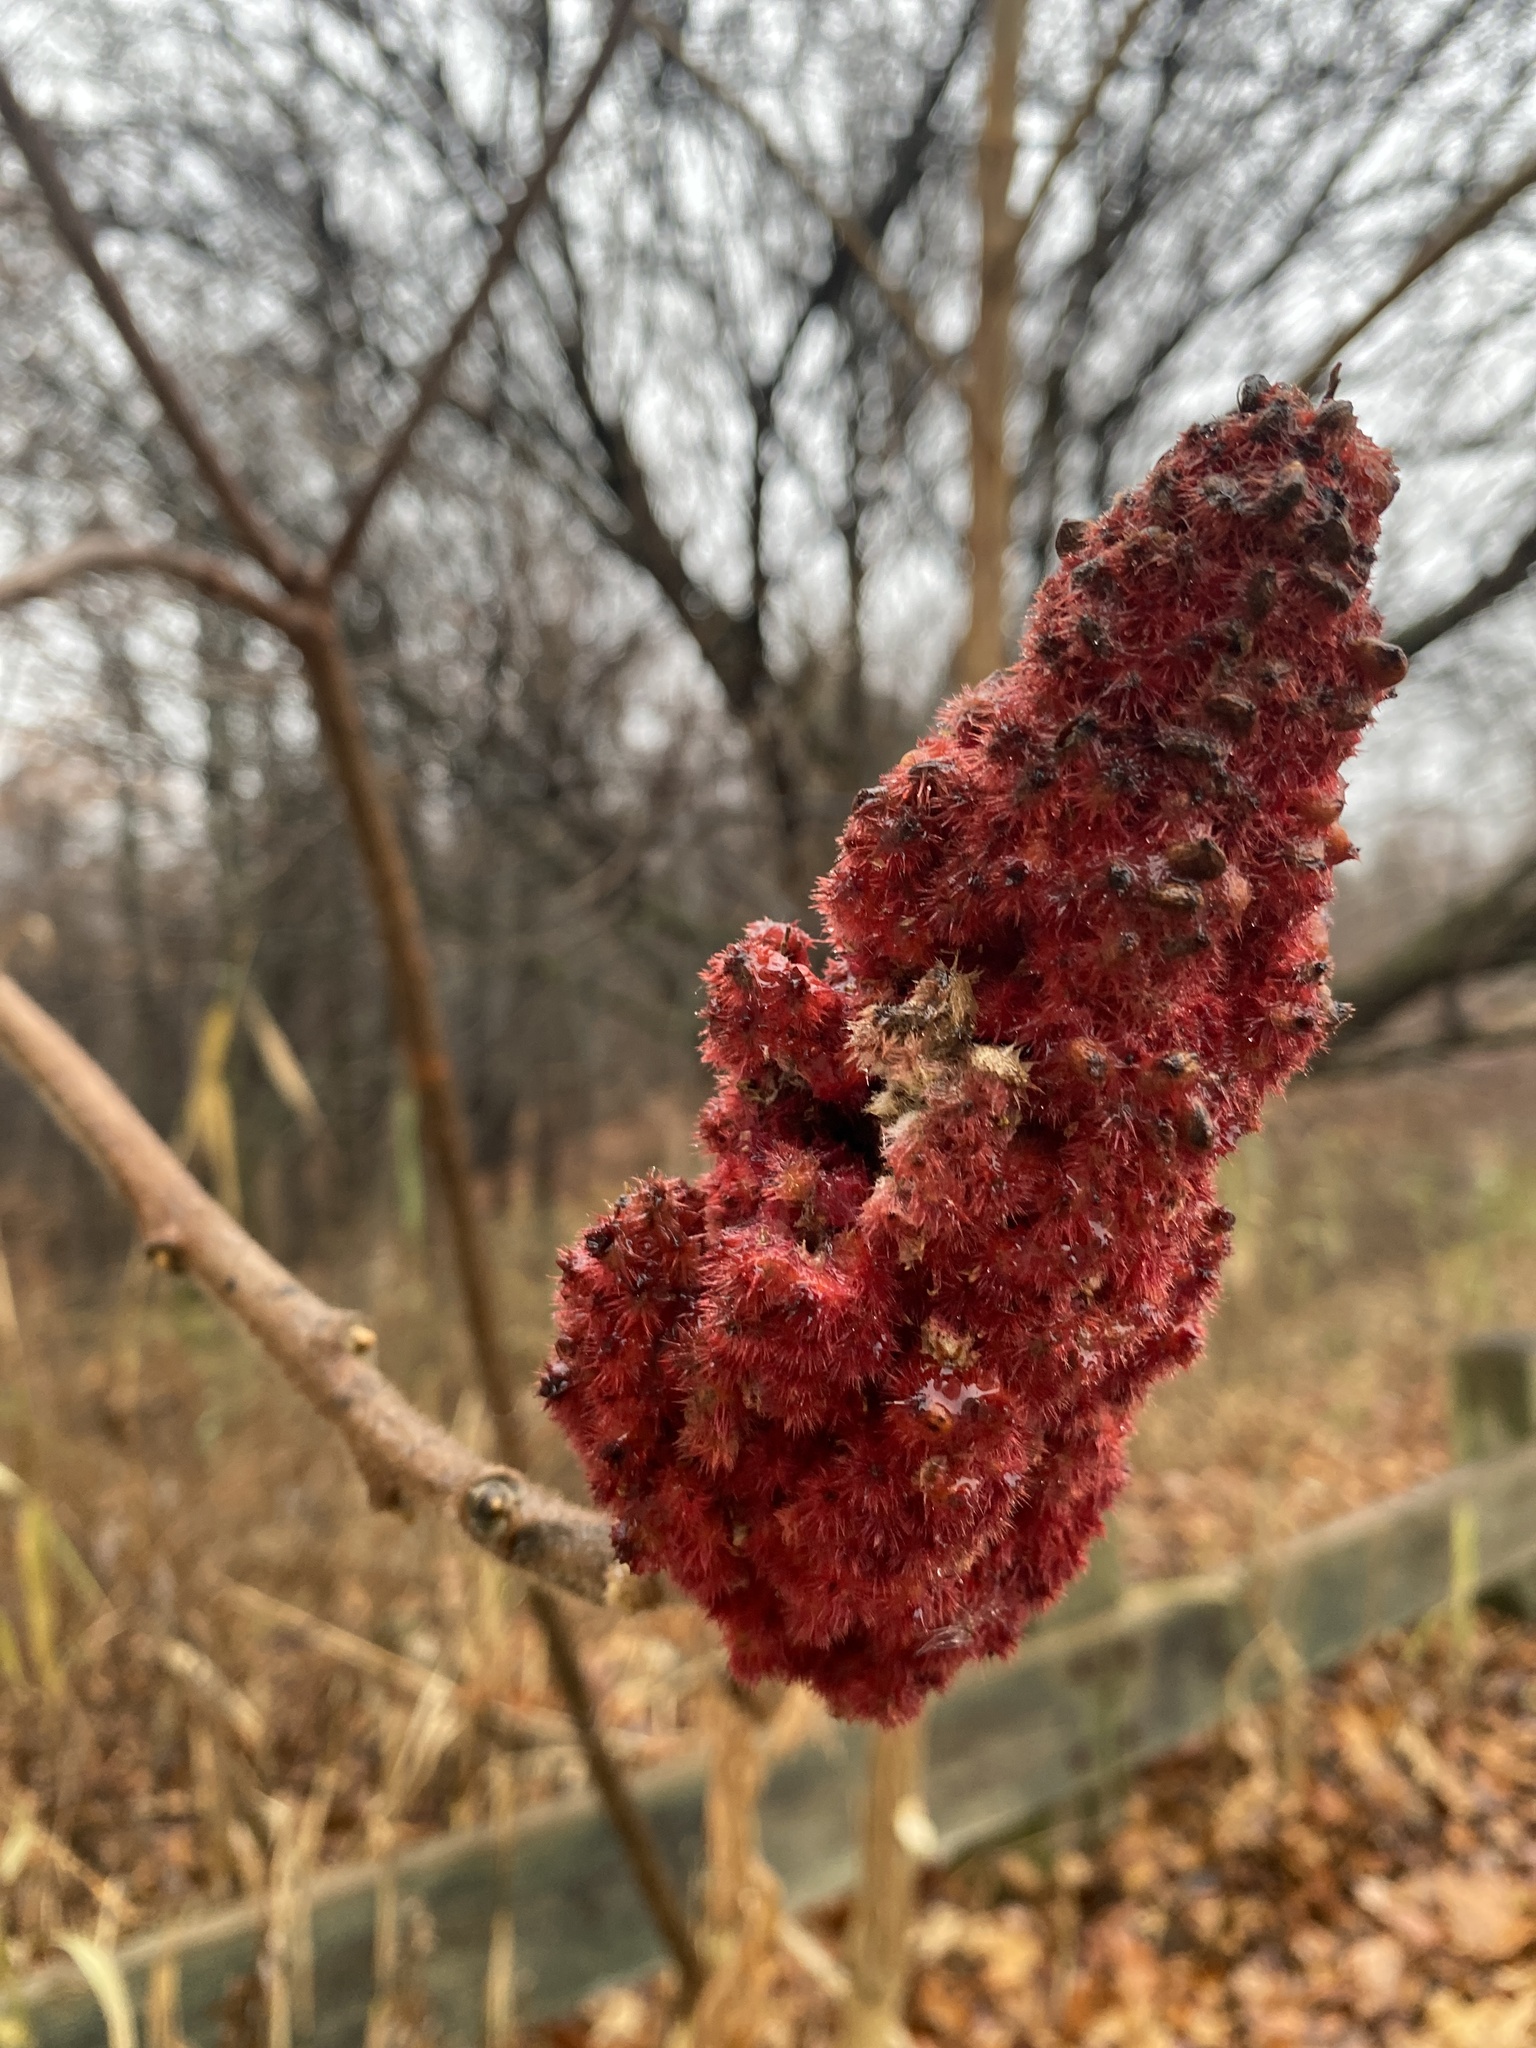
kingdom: Plantae
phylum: Tracheophyta
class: Magnoliopsida
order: Sapindales
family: Anacardiaceae
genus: Rhus
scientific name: Rhus typhina
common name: Staghorn sumac
